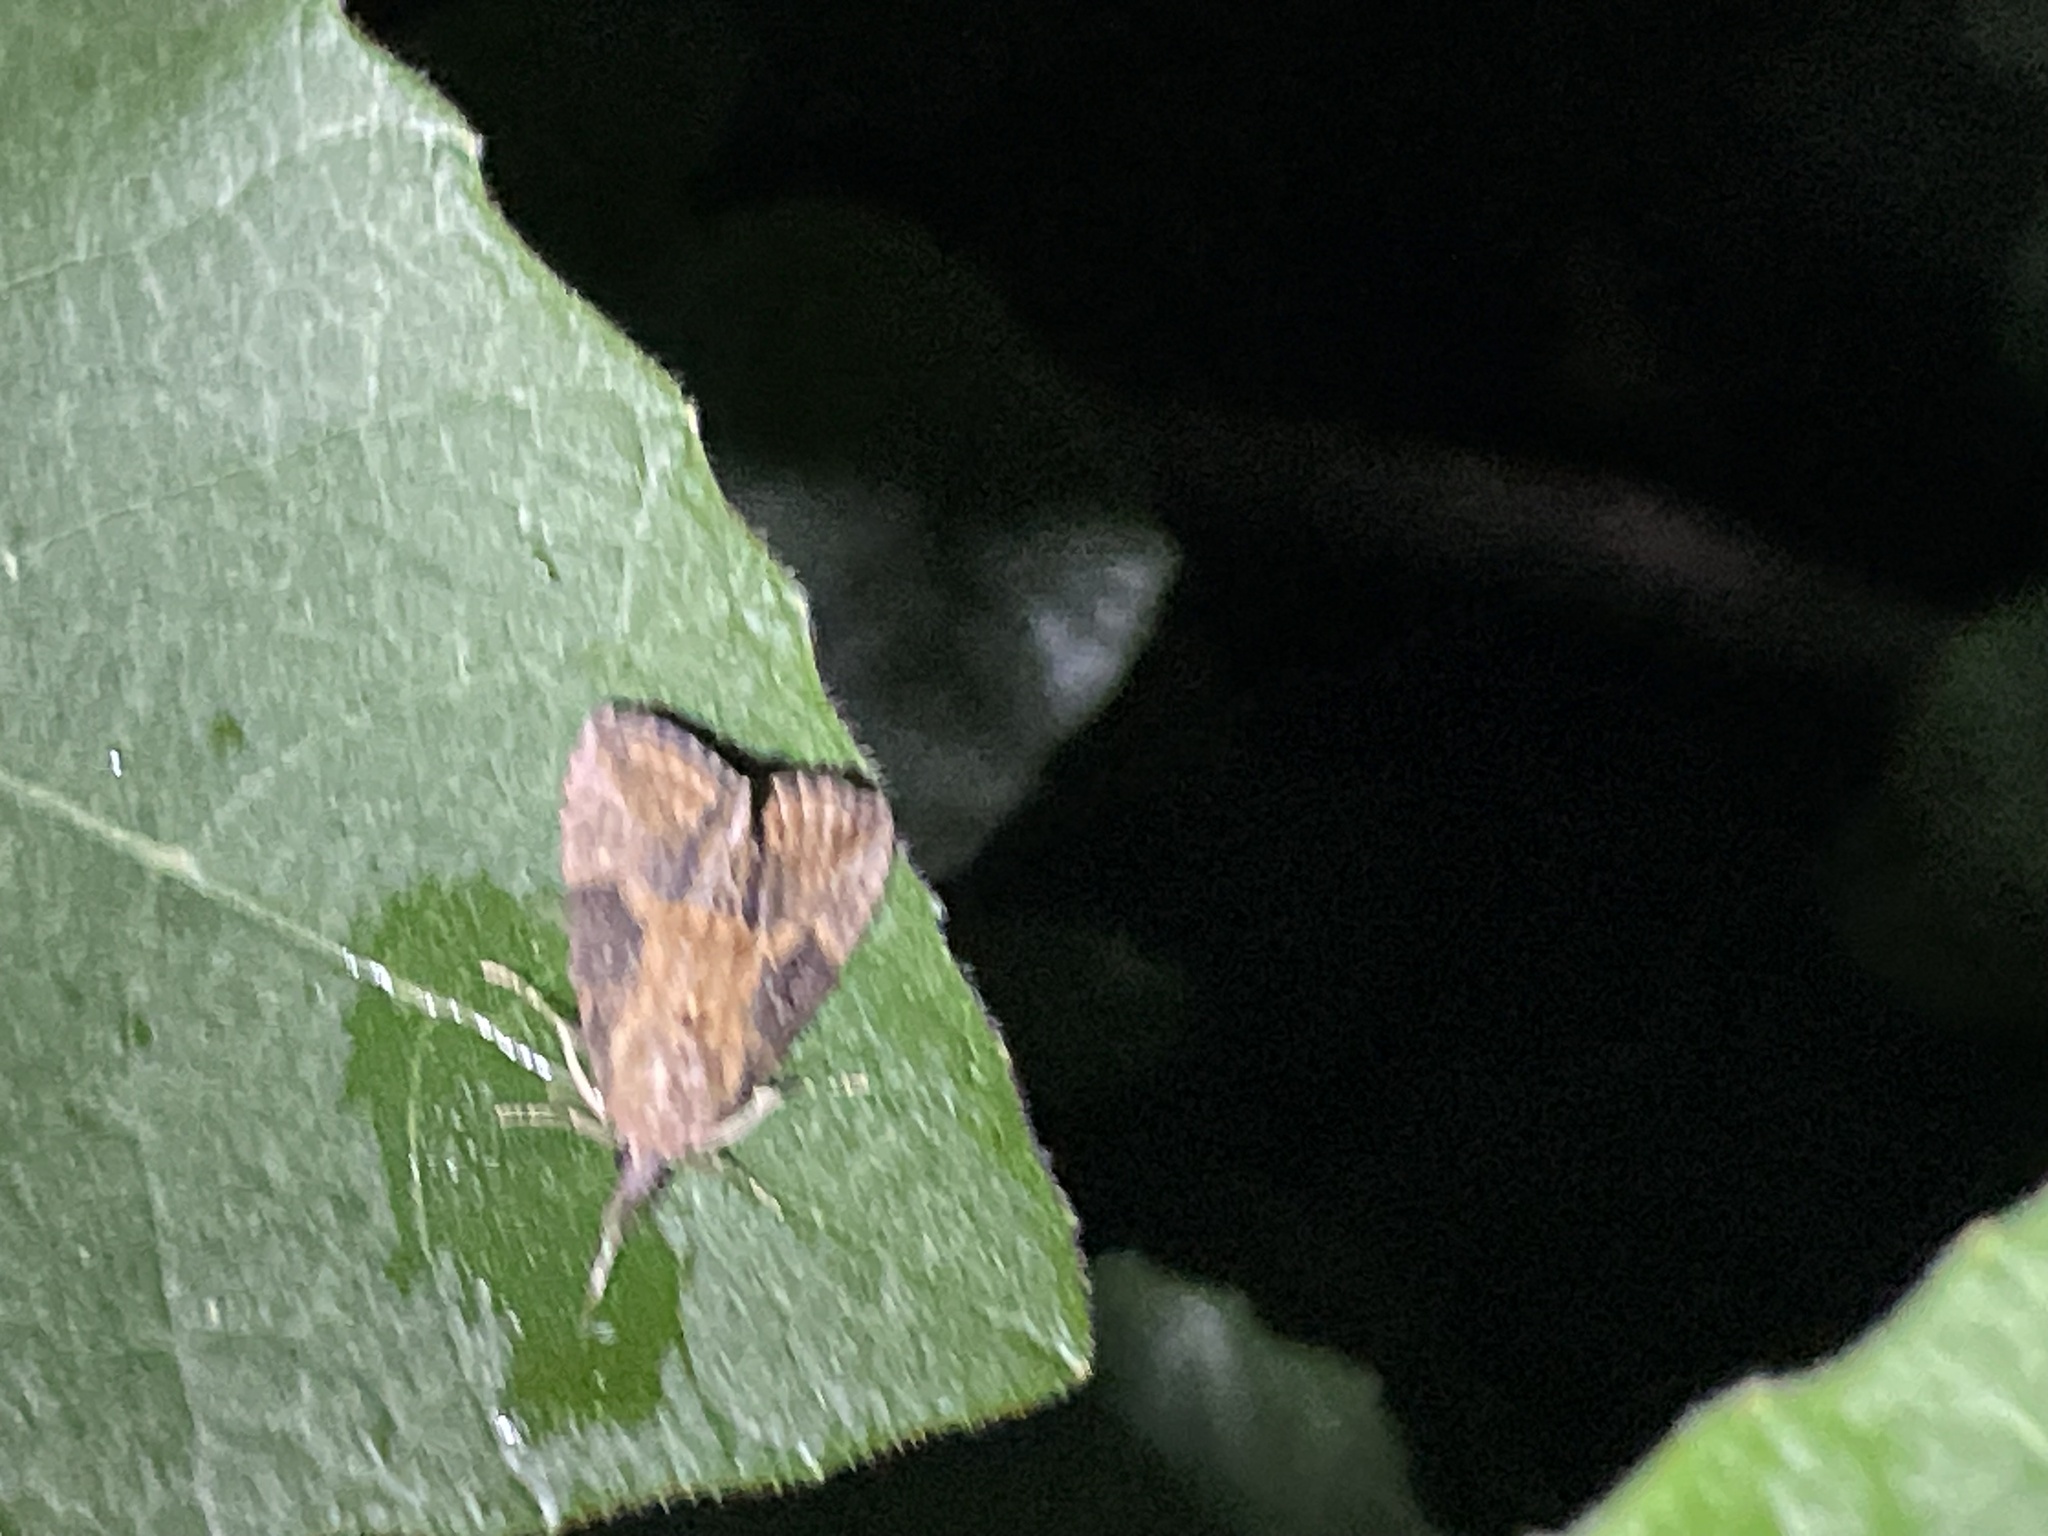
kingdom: Animalia
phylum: Arthropoda
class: Insecta
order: Lepidoptera
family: Erebidae
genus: Hypena
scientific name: Hypena scabra
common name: Green cloverworm
